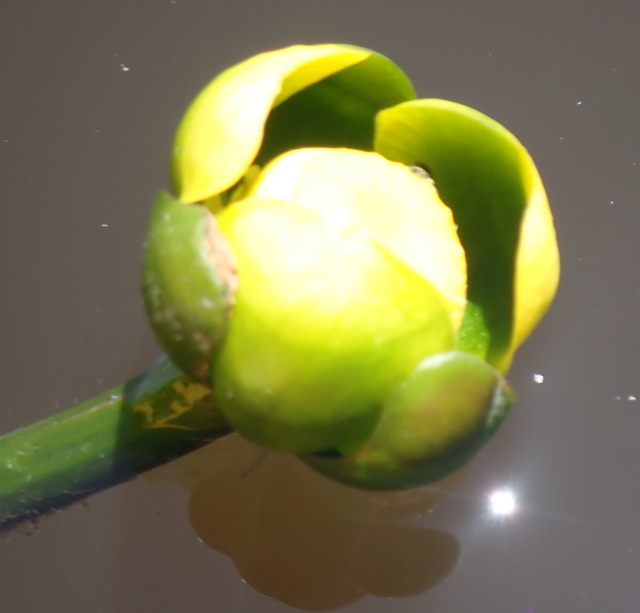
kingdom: Plantae
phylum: Tracheophyta
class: Magnoliopsida
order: Nymphaeales
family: Nymphaeaceae
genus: Nuphar
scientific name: Nuphar advena
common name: Spatter-dock
